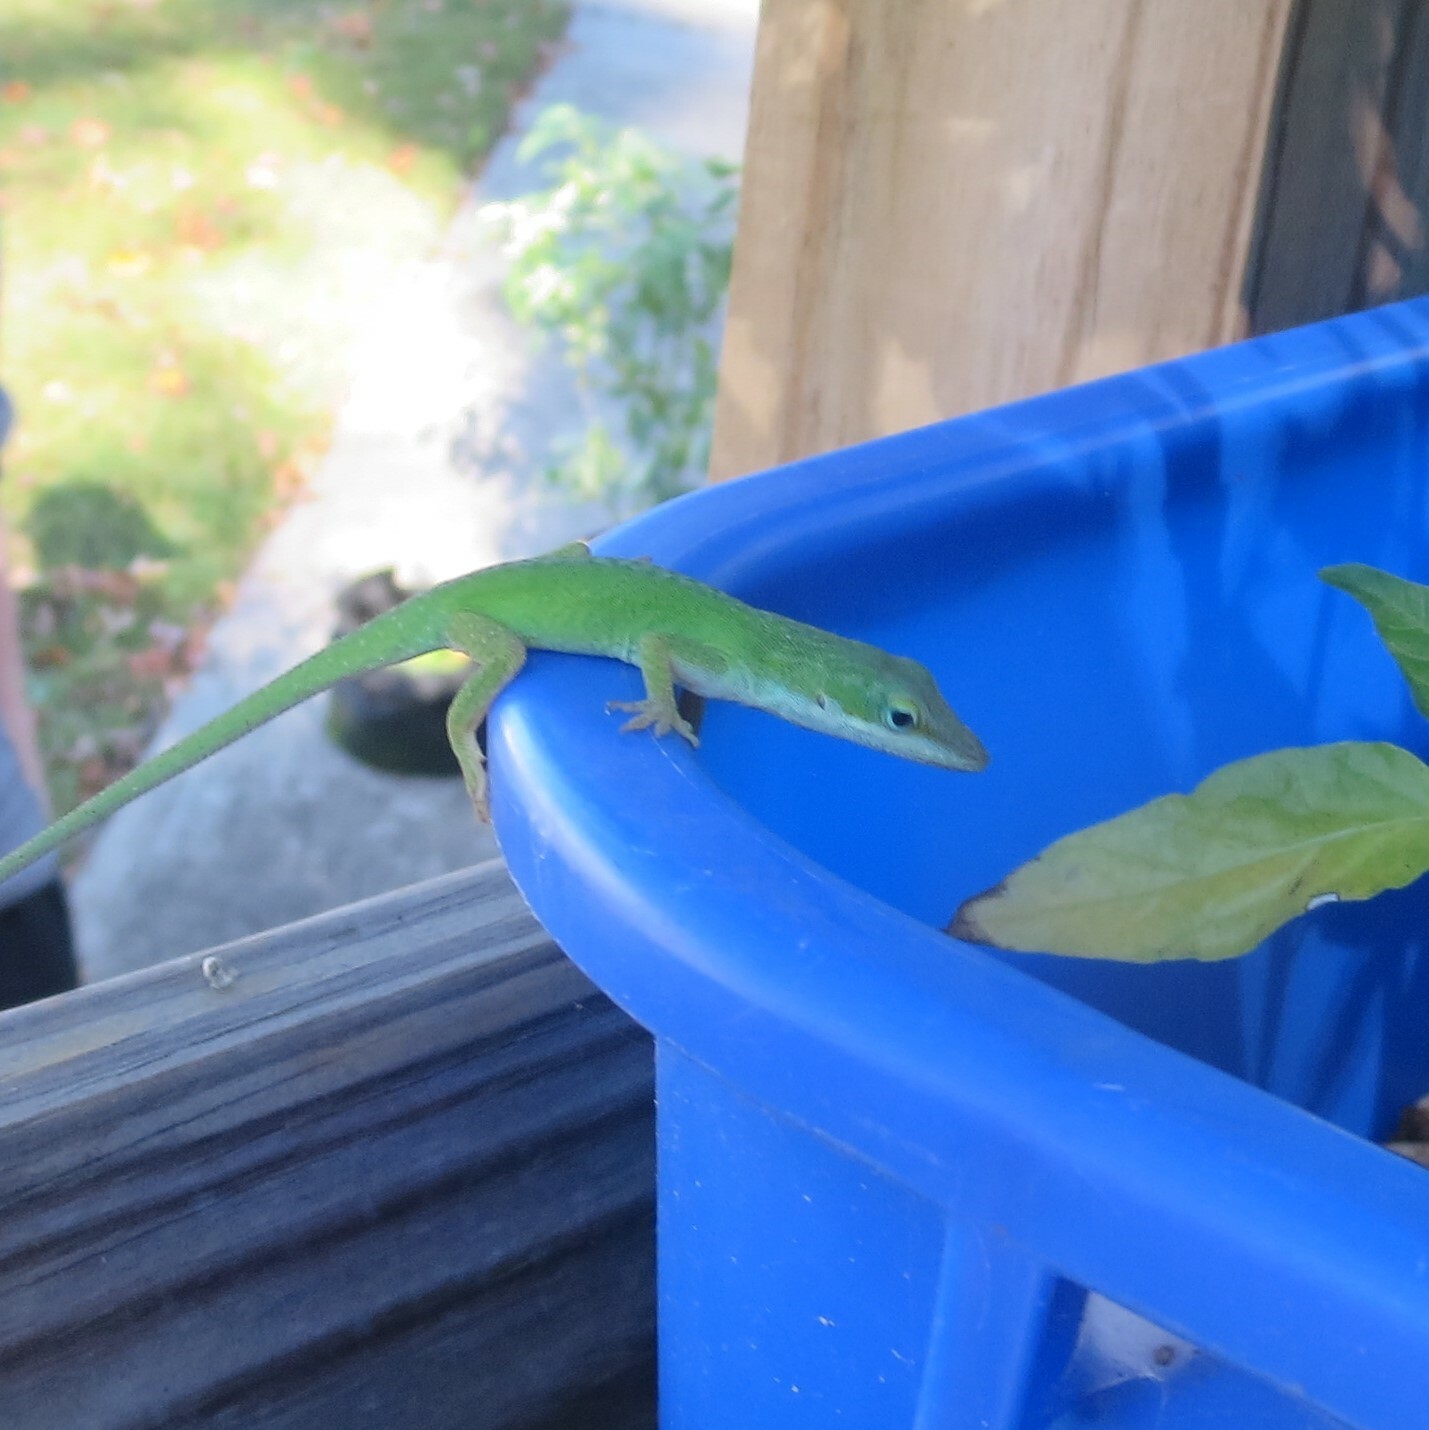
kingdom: Animalia
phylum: Chordata
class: Squamata
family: Dactyloidae
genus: Anolis
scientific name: Anolis carolinensis
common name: Green anole
